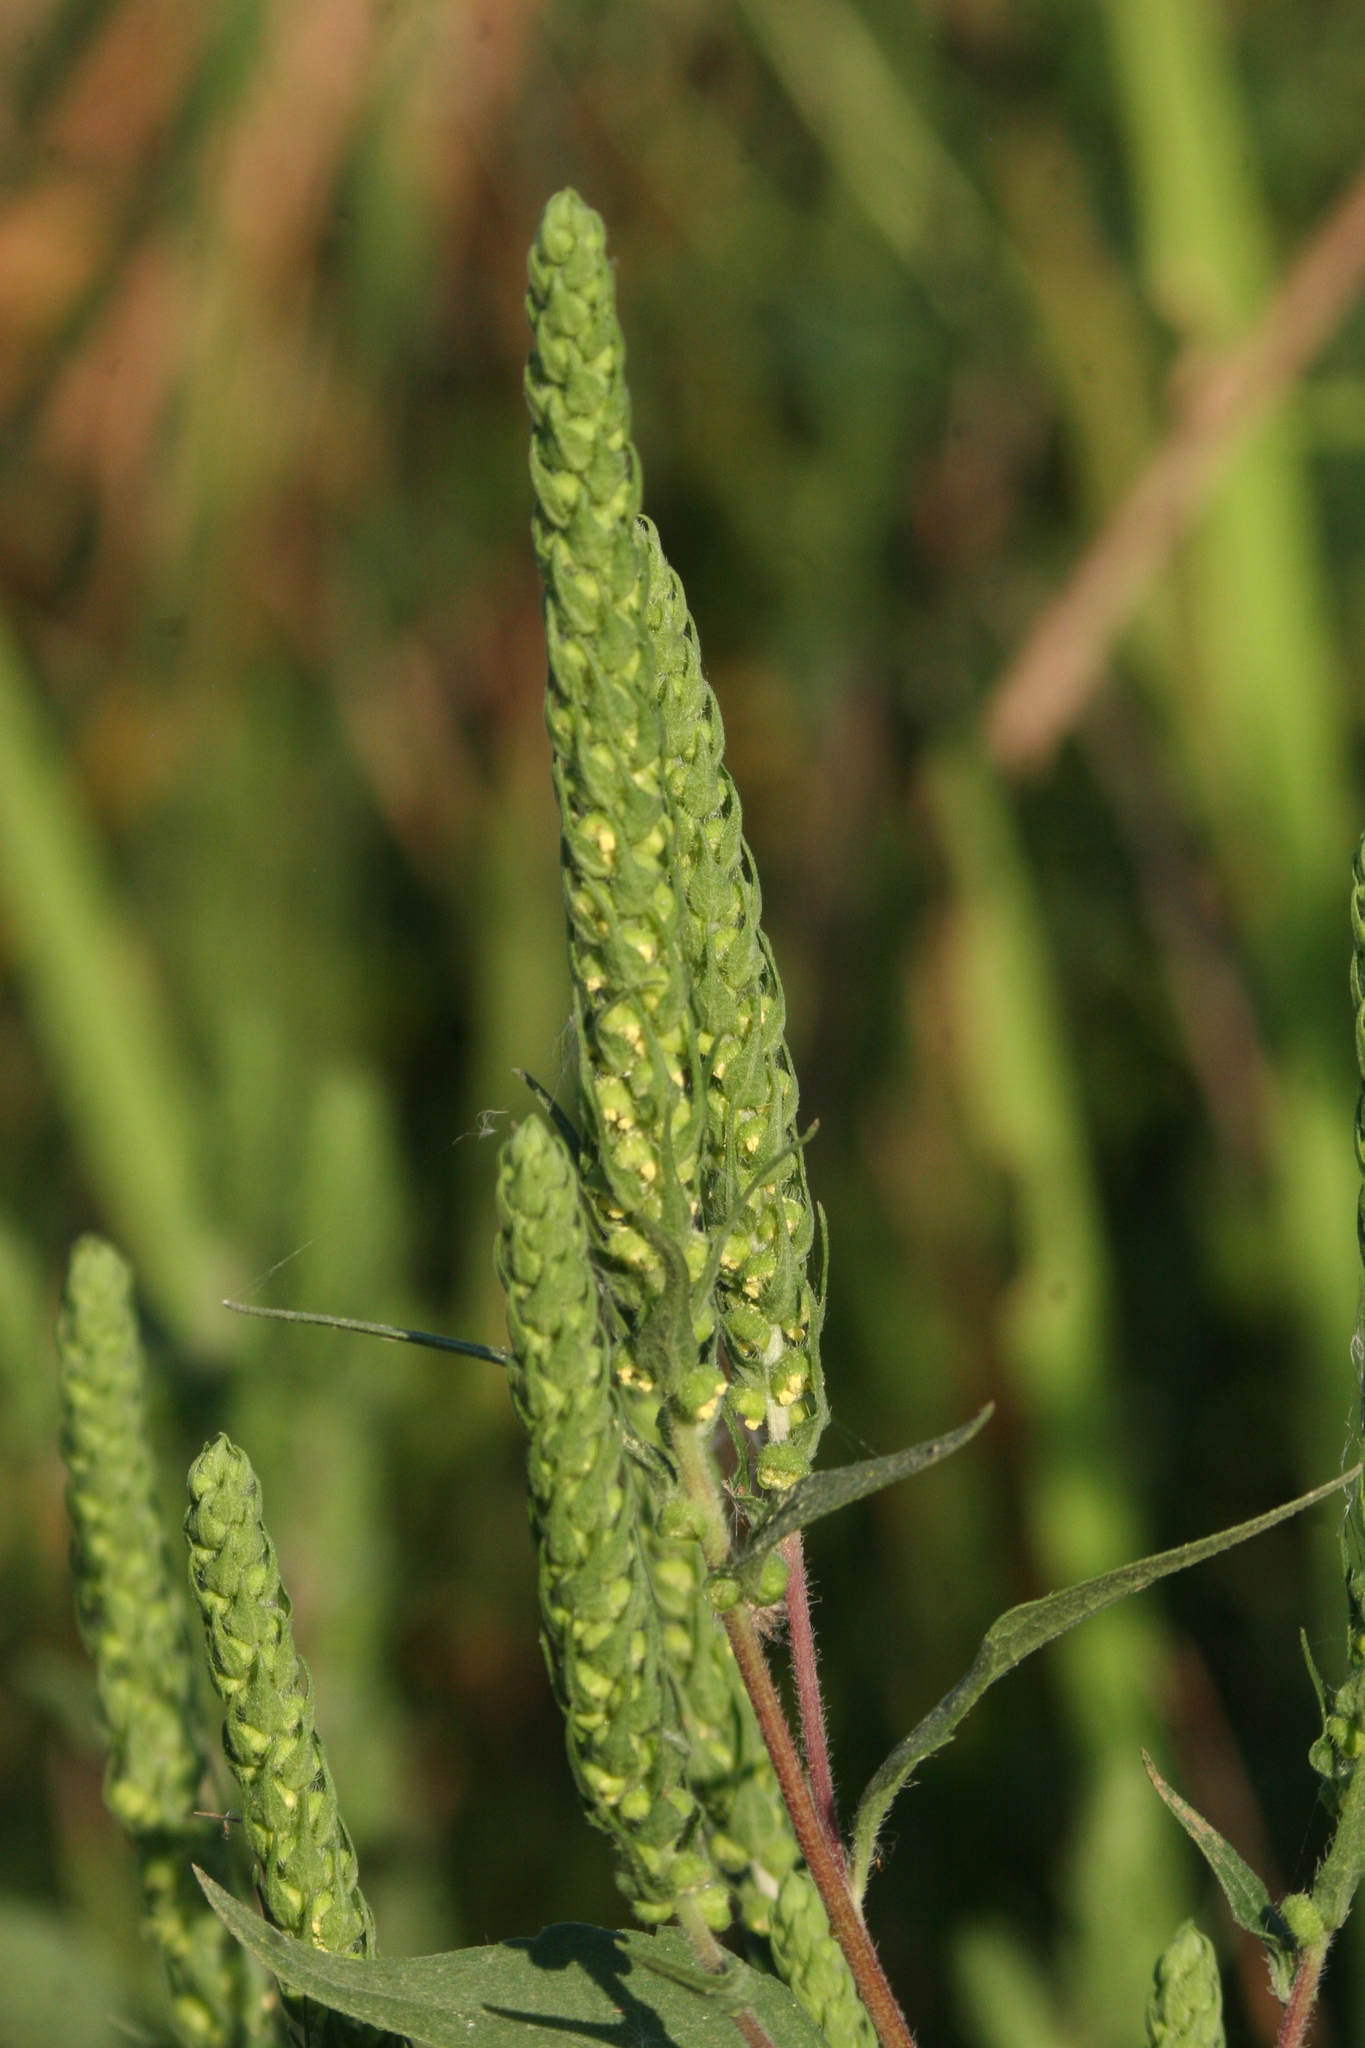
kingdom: Plantae
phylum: Tracheophyta
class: Magnoliopsida
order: Asterales
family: Asteraceae
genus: Iva
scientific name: Iva annua
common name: Marsh-elder
